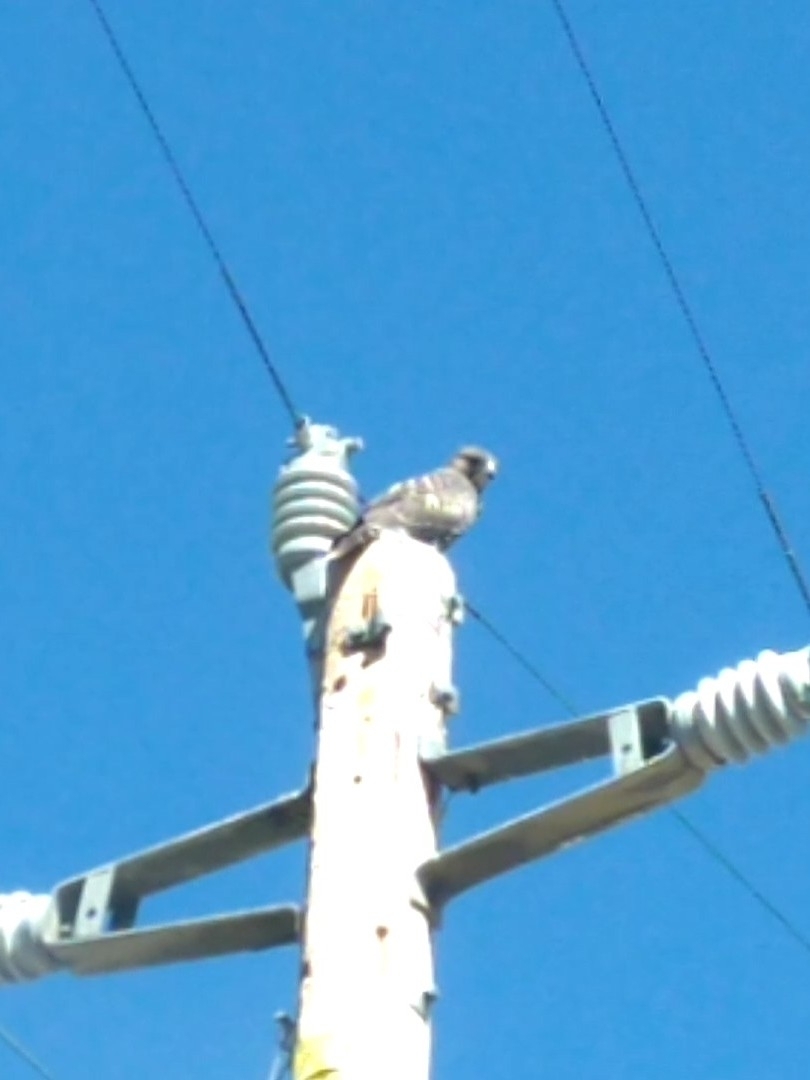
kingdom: Animalia
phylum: Chordata
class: Aves
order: Accipitriformes
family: Accipitridae
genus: Buteo
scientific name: Buteo lineatus
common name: Red-shouldered hawk
